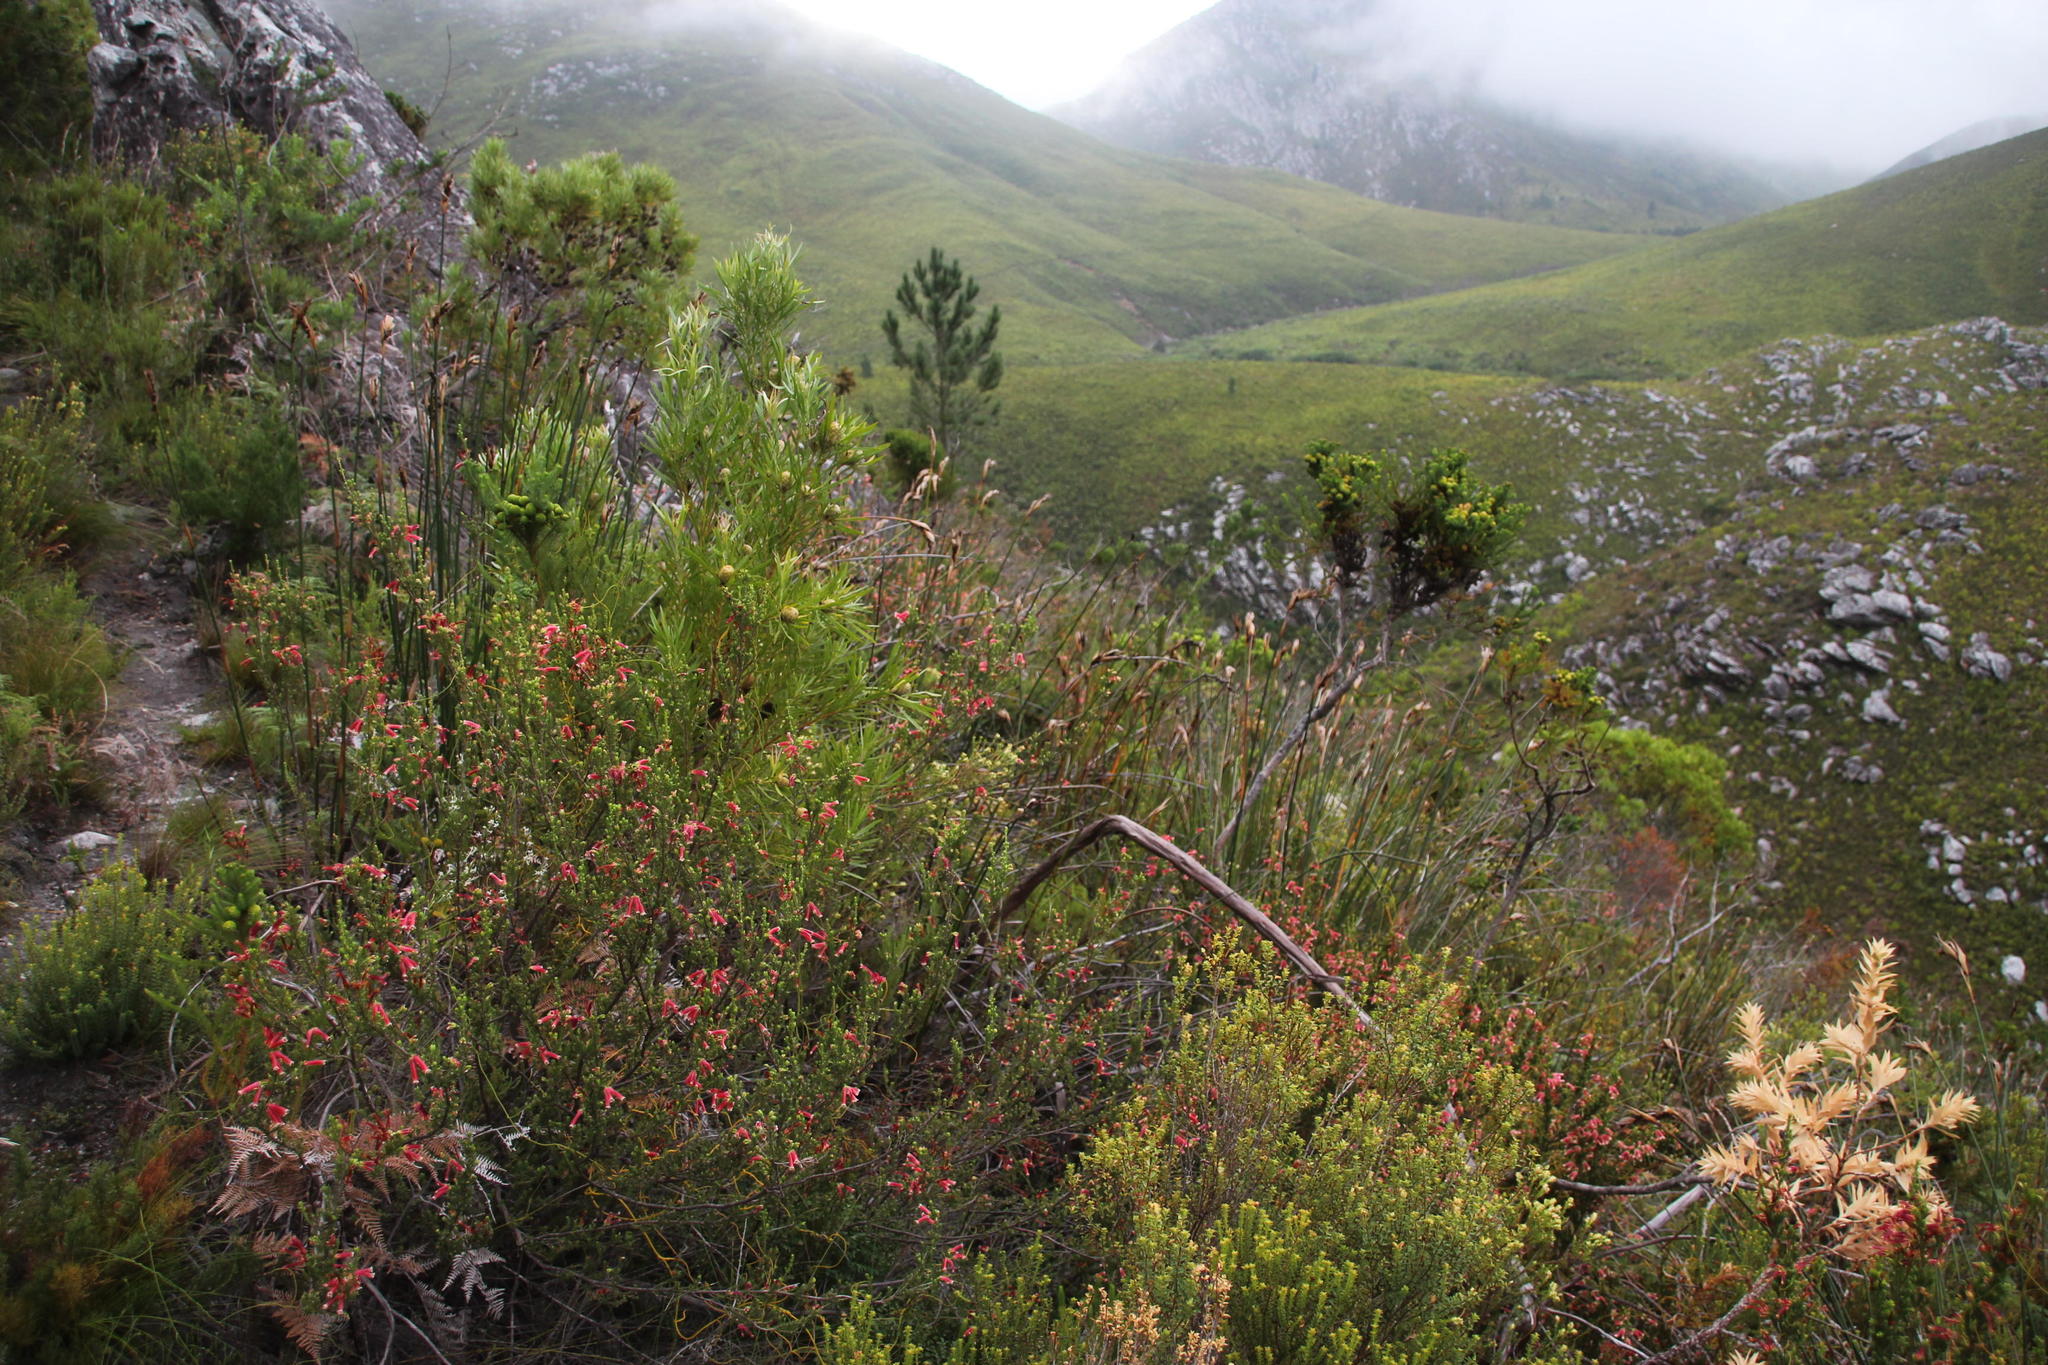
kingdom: Plantae
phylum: Tracheophyta
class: Liliopsida
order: Poales
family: Restionaceae
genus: Elegia
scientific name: Elegia mucronata
